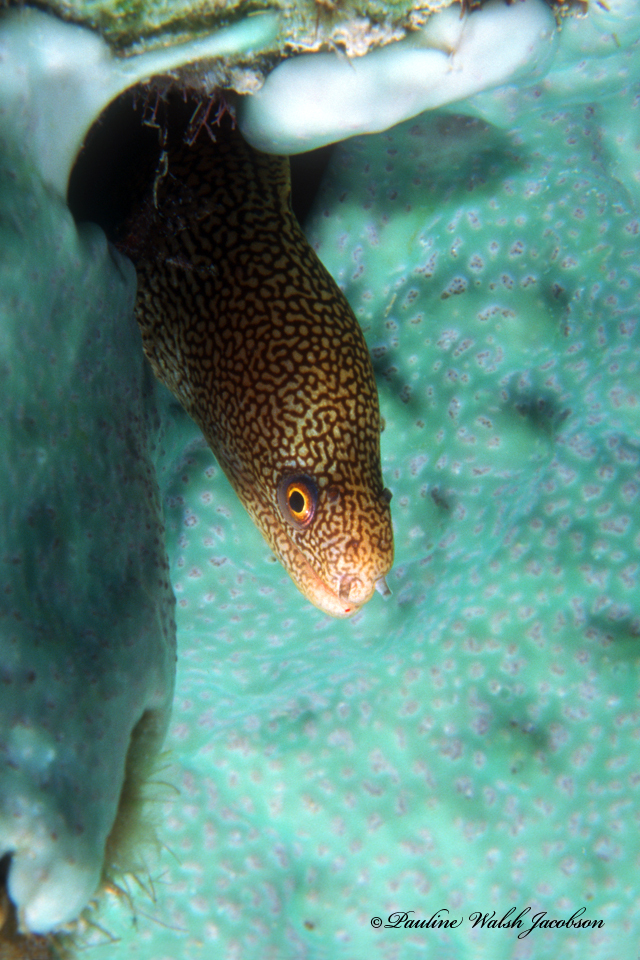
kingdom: Animalia
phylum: Chordata
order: Anguilliformes
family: Muraenidae
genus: Gymnothorax
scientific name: Gymnothorax miliaris
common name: Goldentail moray
